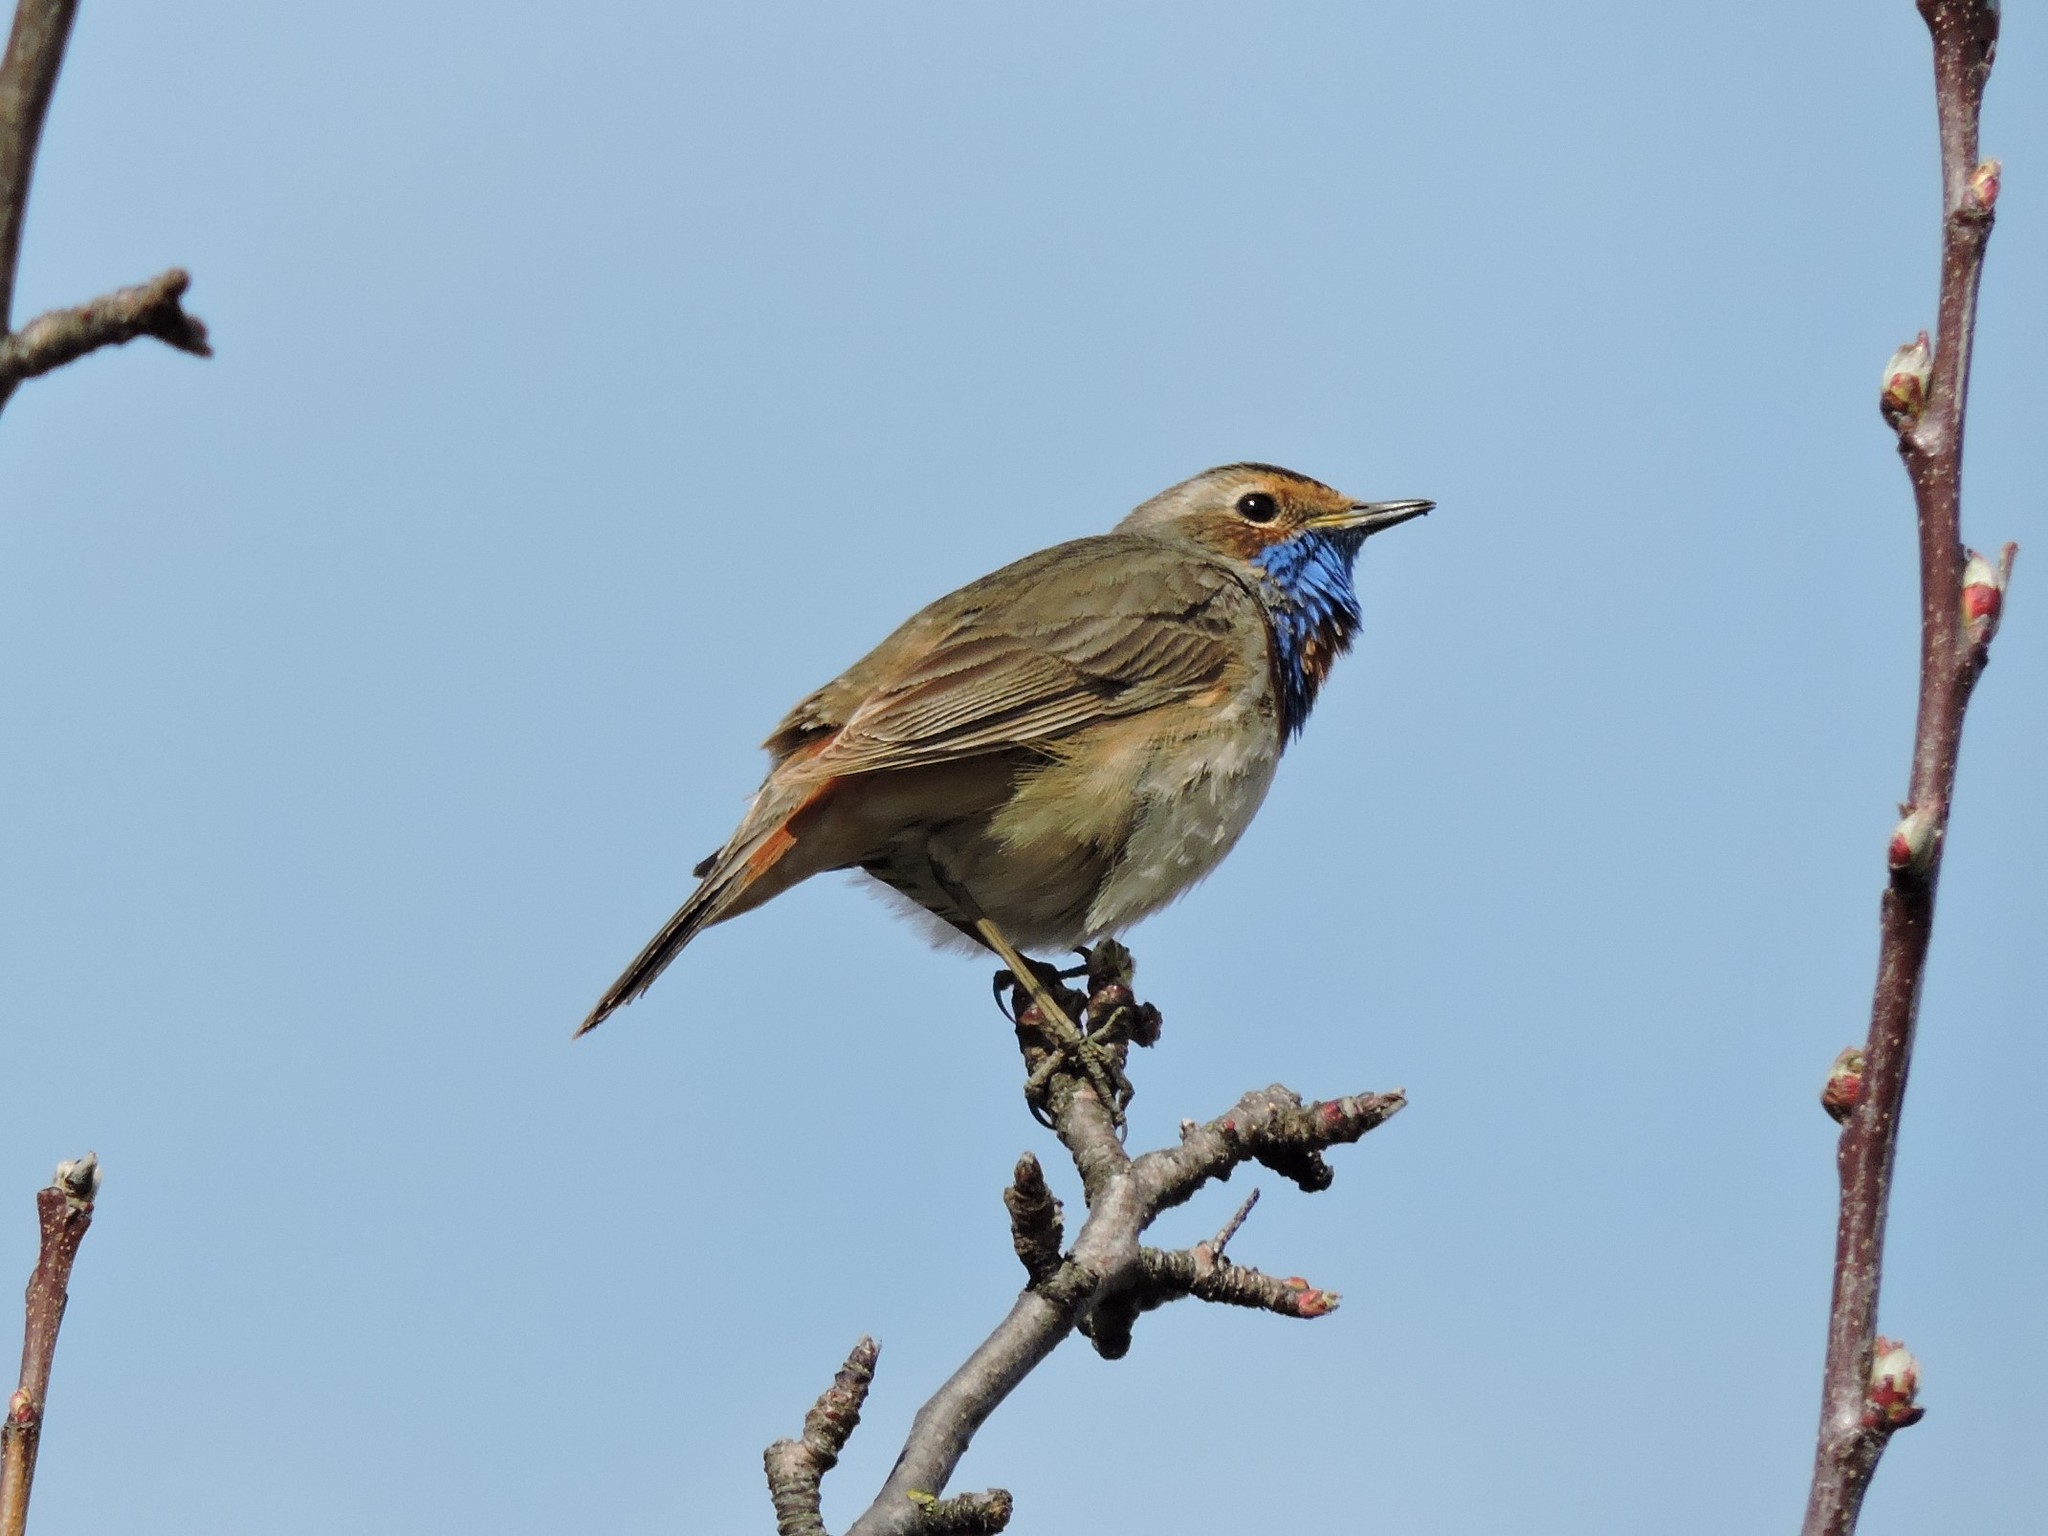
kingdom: Animalia
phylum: Chordata
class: Aves
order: Passeriformes
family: Muscicapidae
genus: Luscinia
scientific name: Luscinia svecica
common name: Bluethroat
